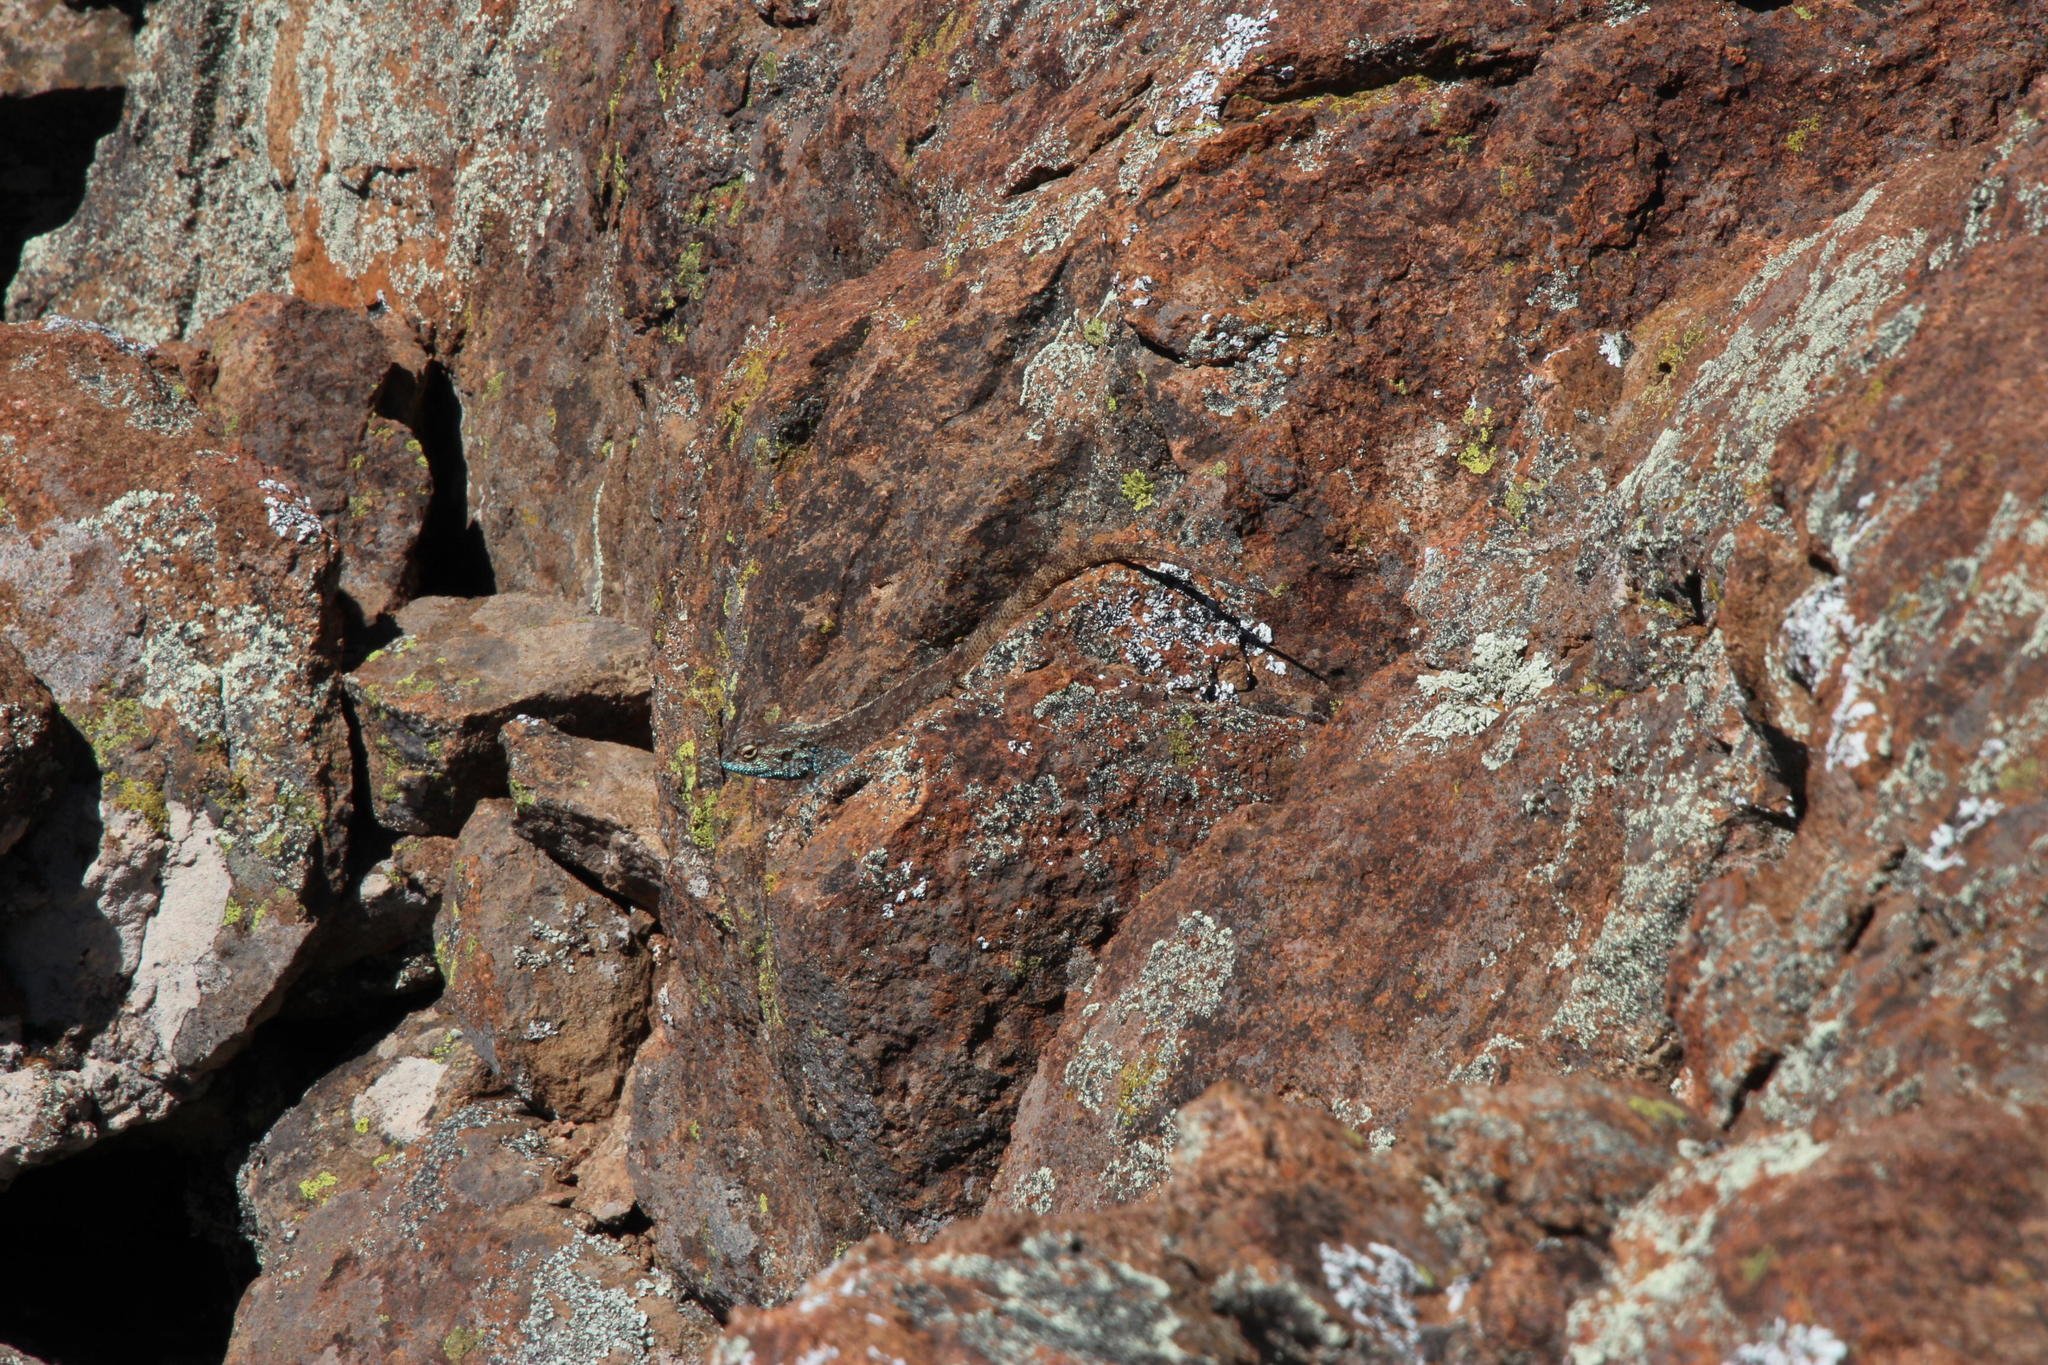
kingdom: Animalia
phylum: Chordata
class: Squamata
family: Agamidae
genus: Agama
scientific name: Agama atra
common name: Southern african rock agama
